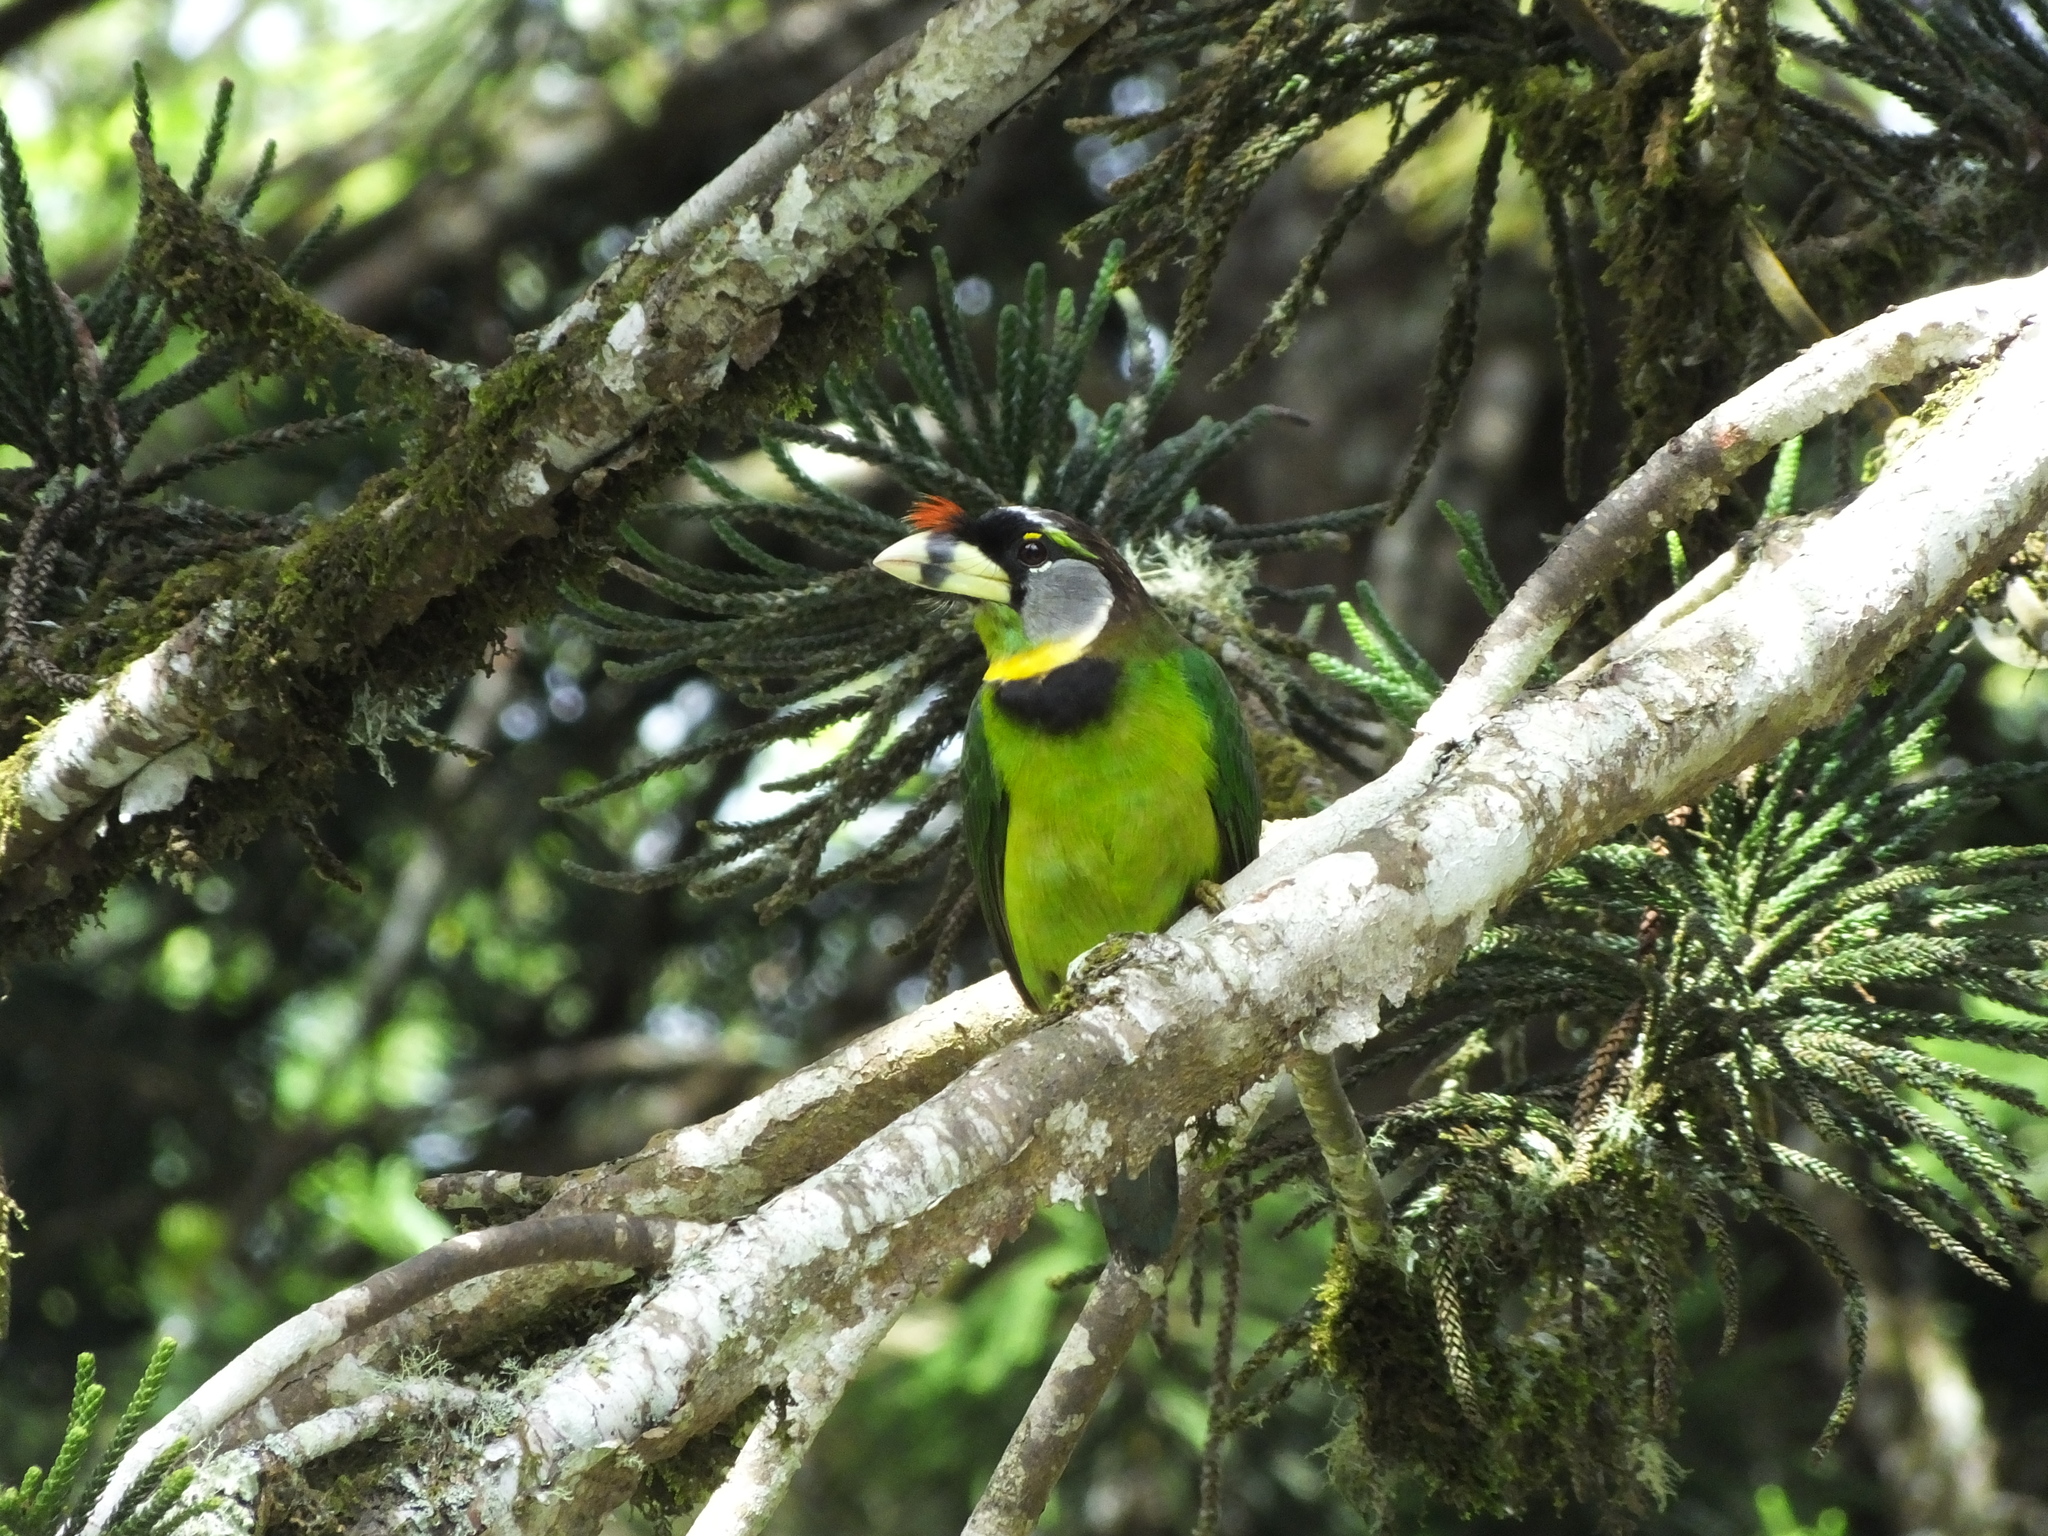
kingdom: Animalia
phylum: Chordata
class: Aves
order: Piciformes
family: Megalaimidae
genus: Psilopogon
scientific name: Psilopogon pyrolophus
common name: Fire-tufted barbet
